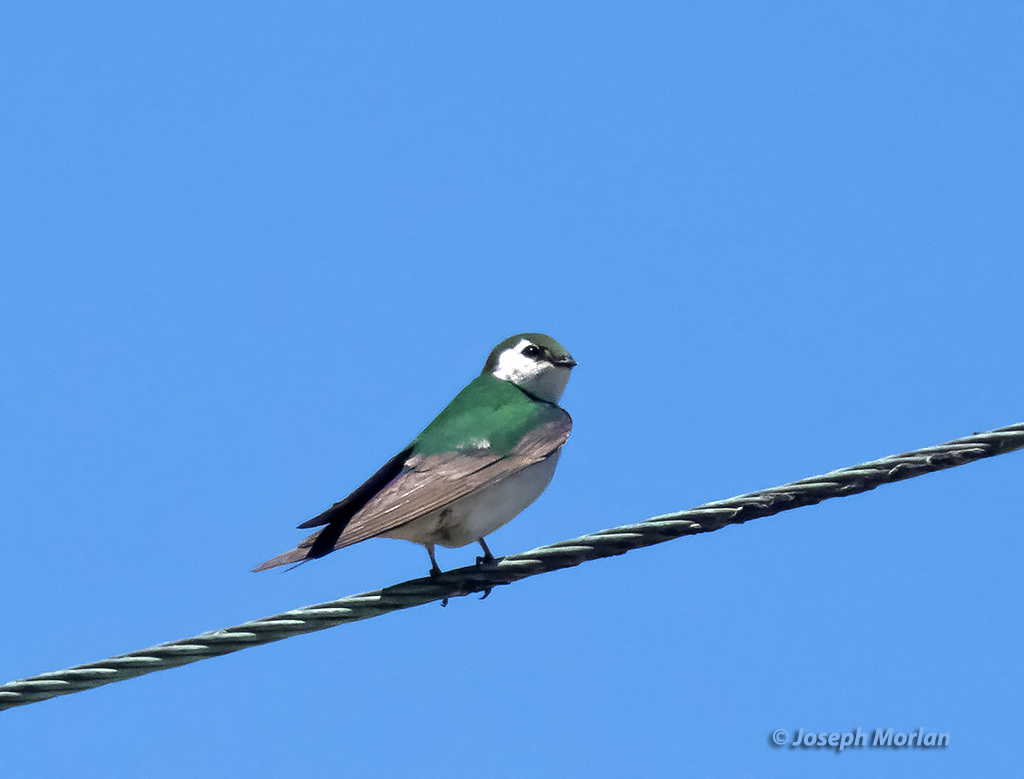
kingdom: Animalia
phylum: Chordata
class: Aves
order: Passeriformes
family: Hirundinidae
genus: Tachycineta
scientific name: Tachycineta thalassina
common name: Violet-green swallow
